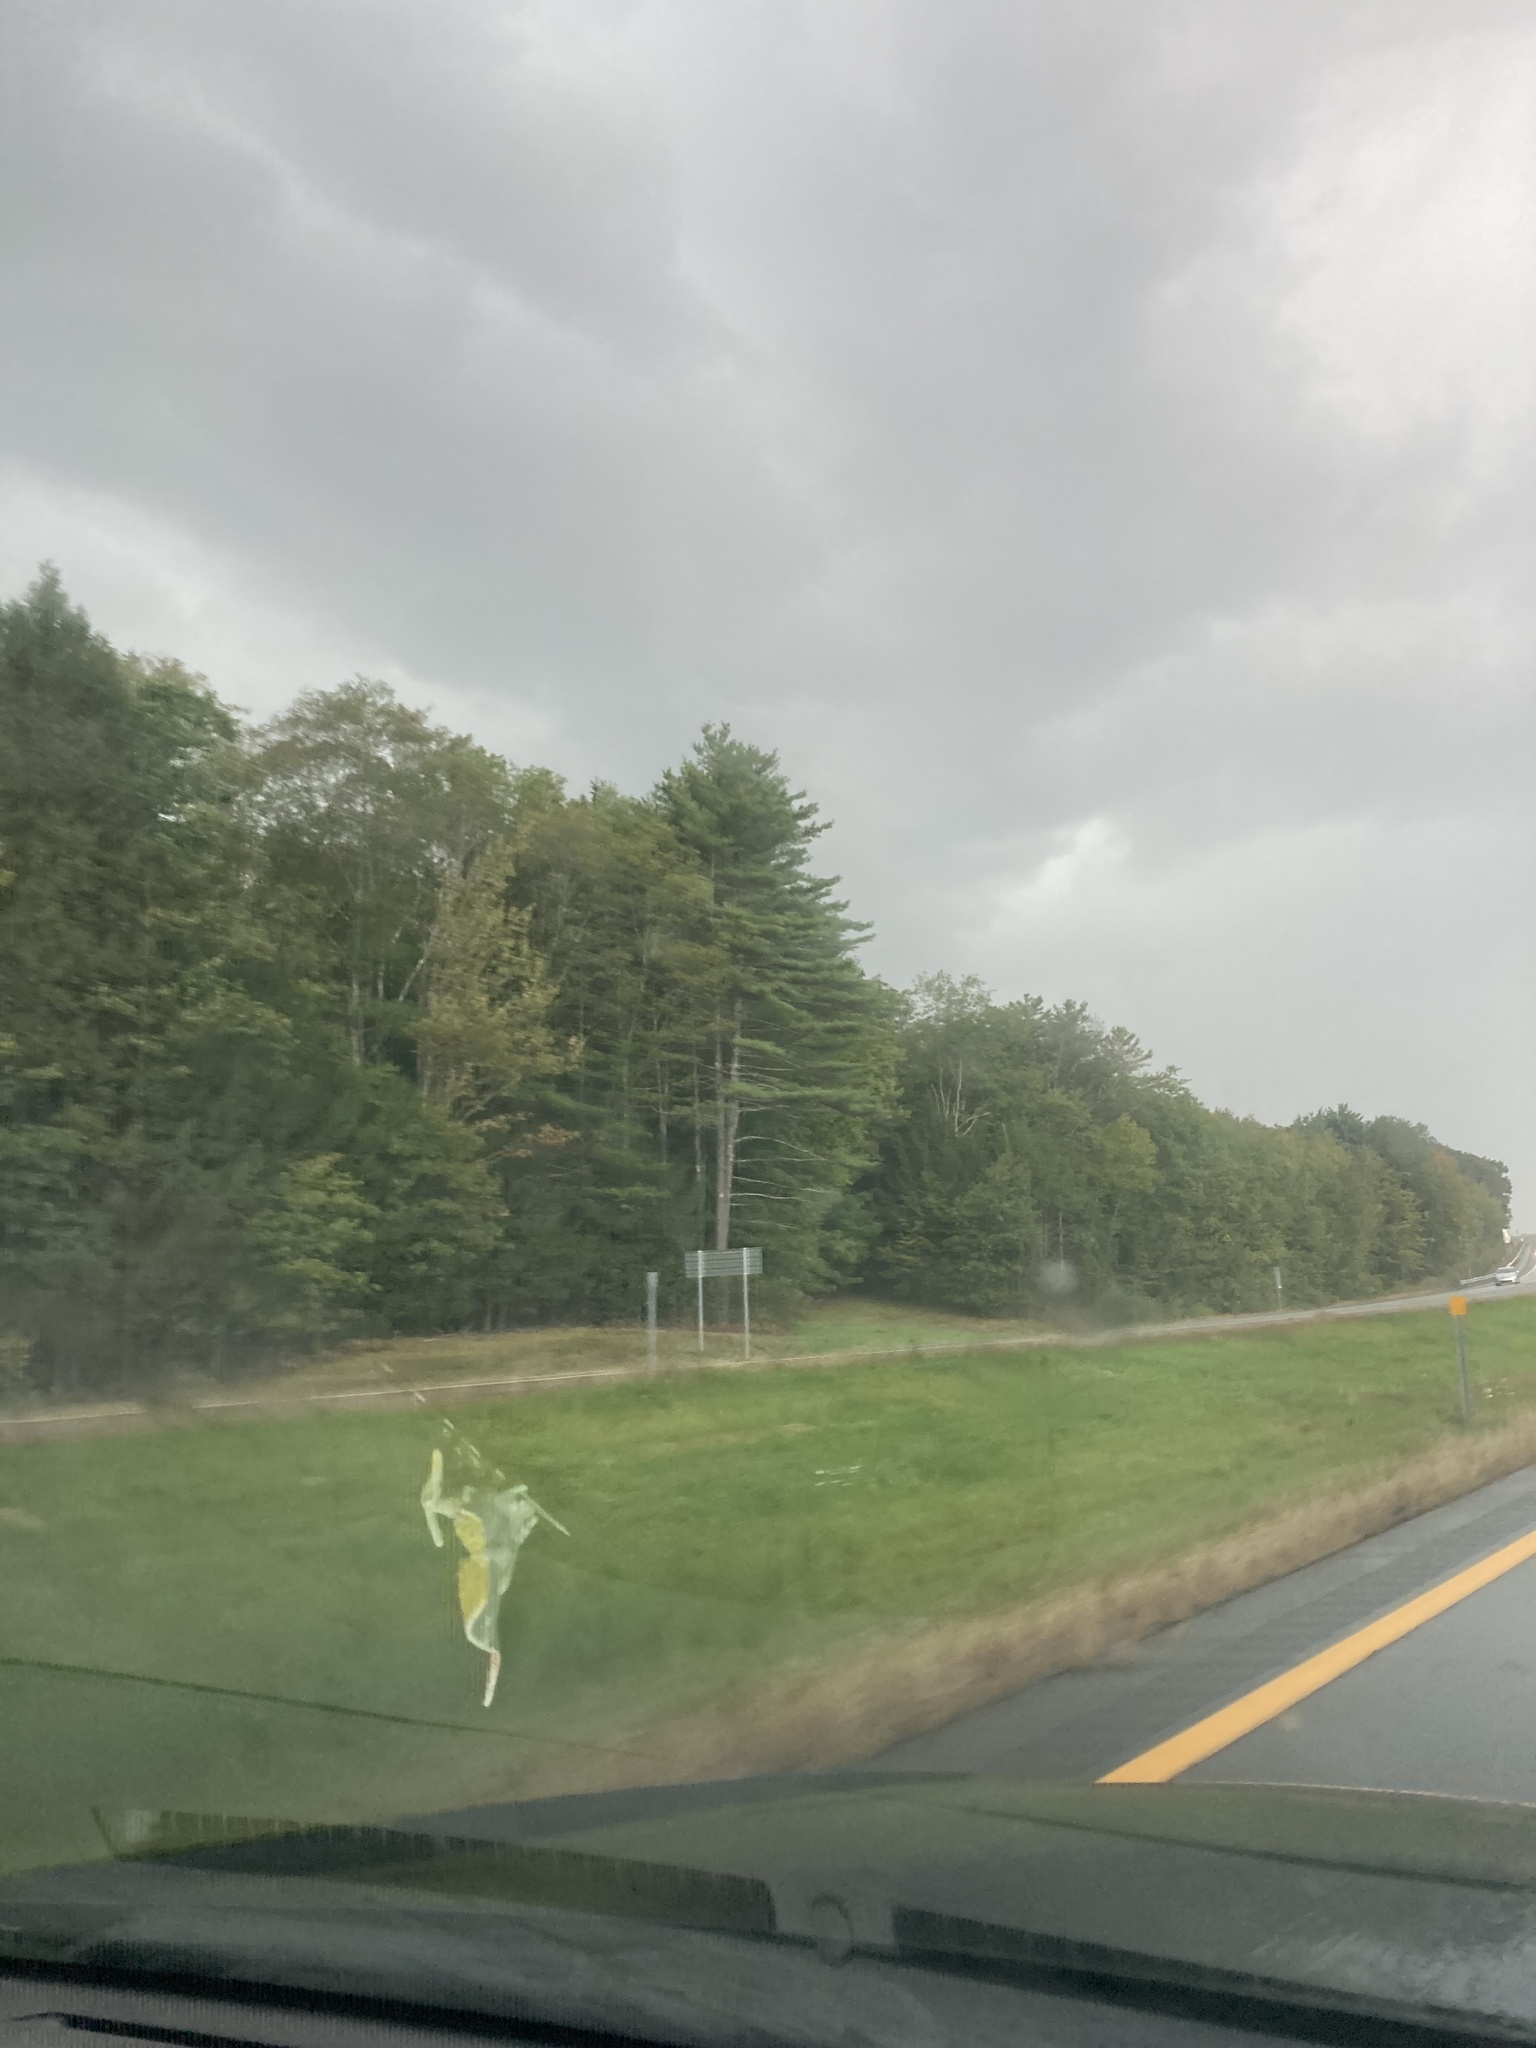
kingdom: Plantae
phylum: Tracheophyta
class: Pinopsida
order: Pinales
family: Pinaceae
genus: Pinus
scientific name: Pinus strobus
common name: Weymouth pine
